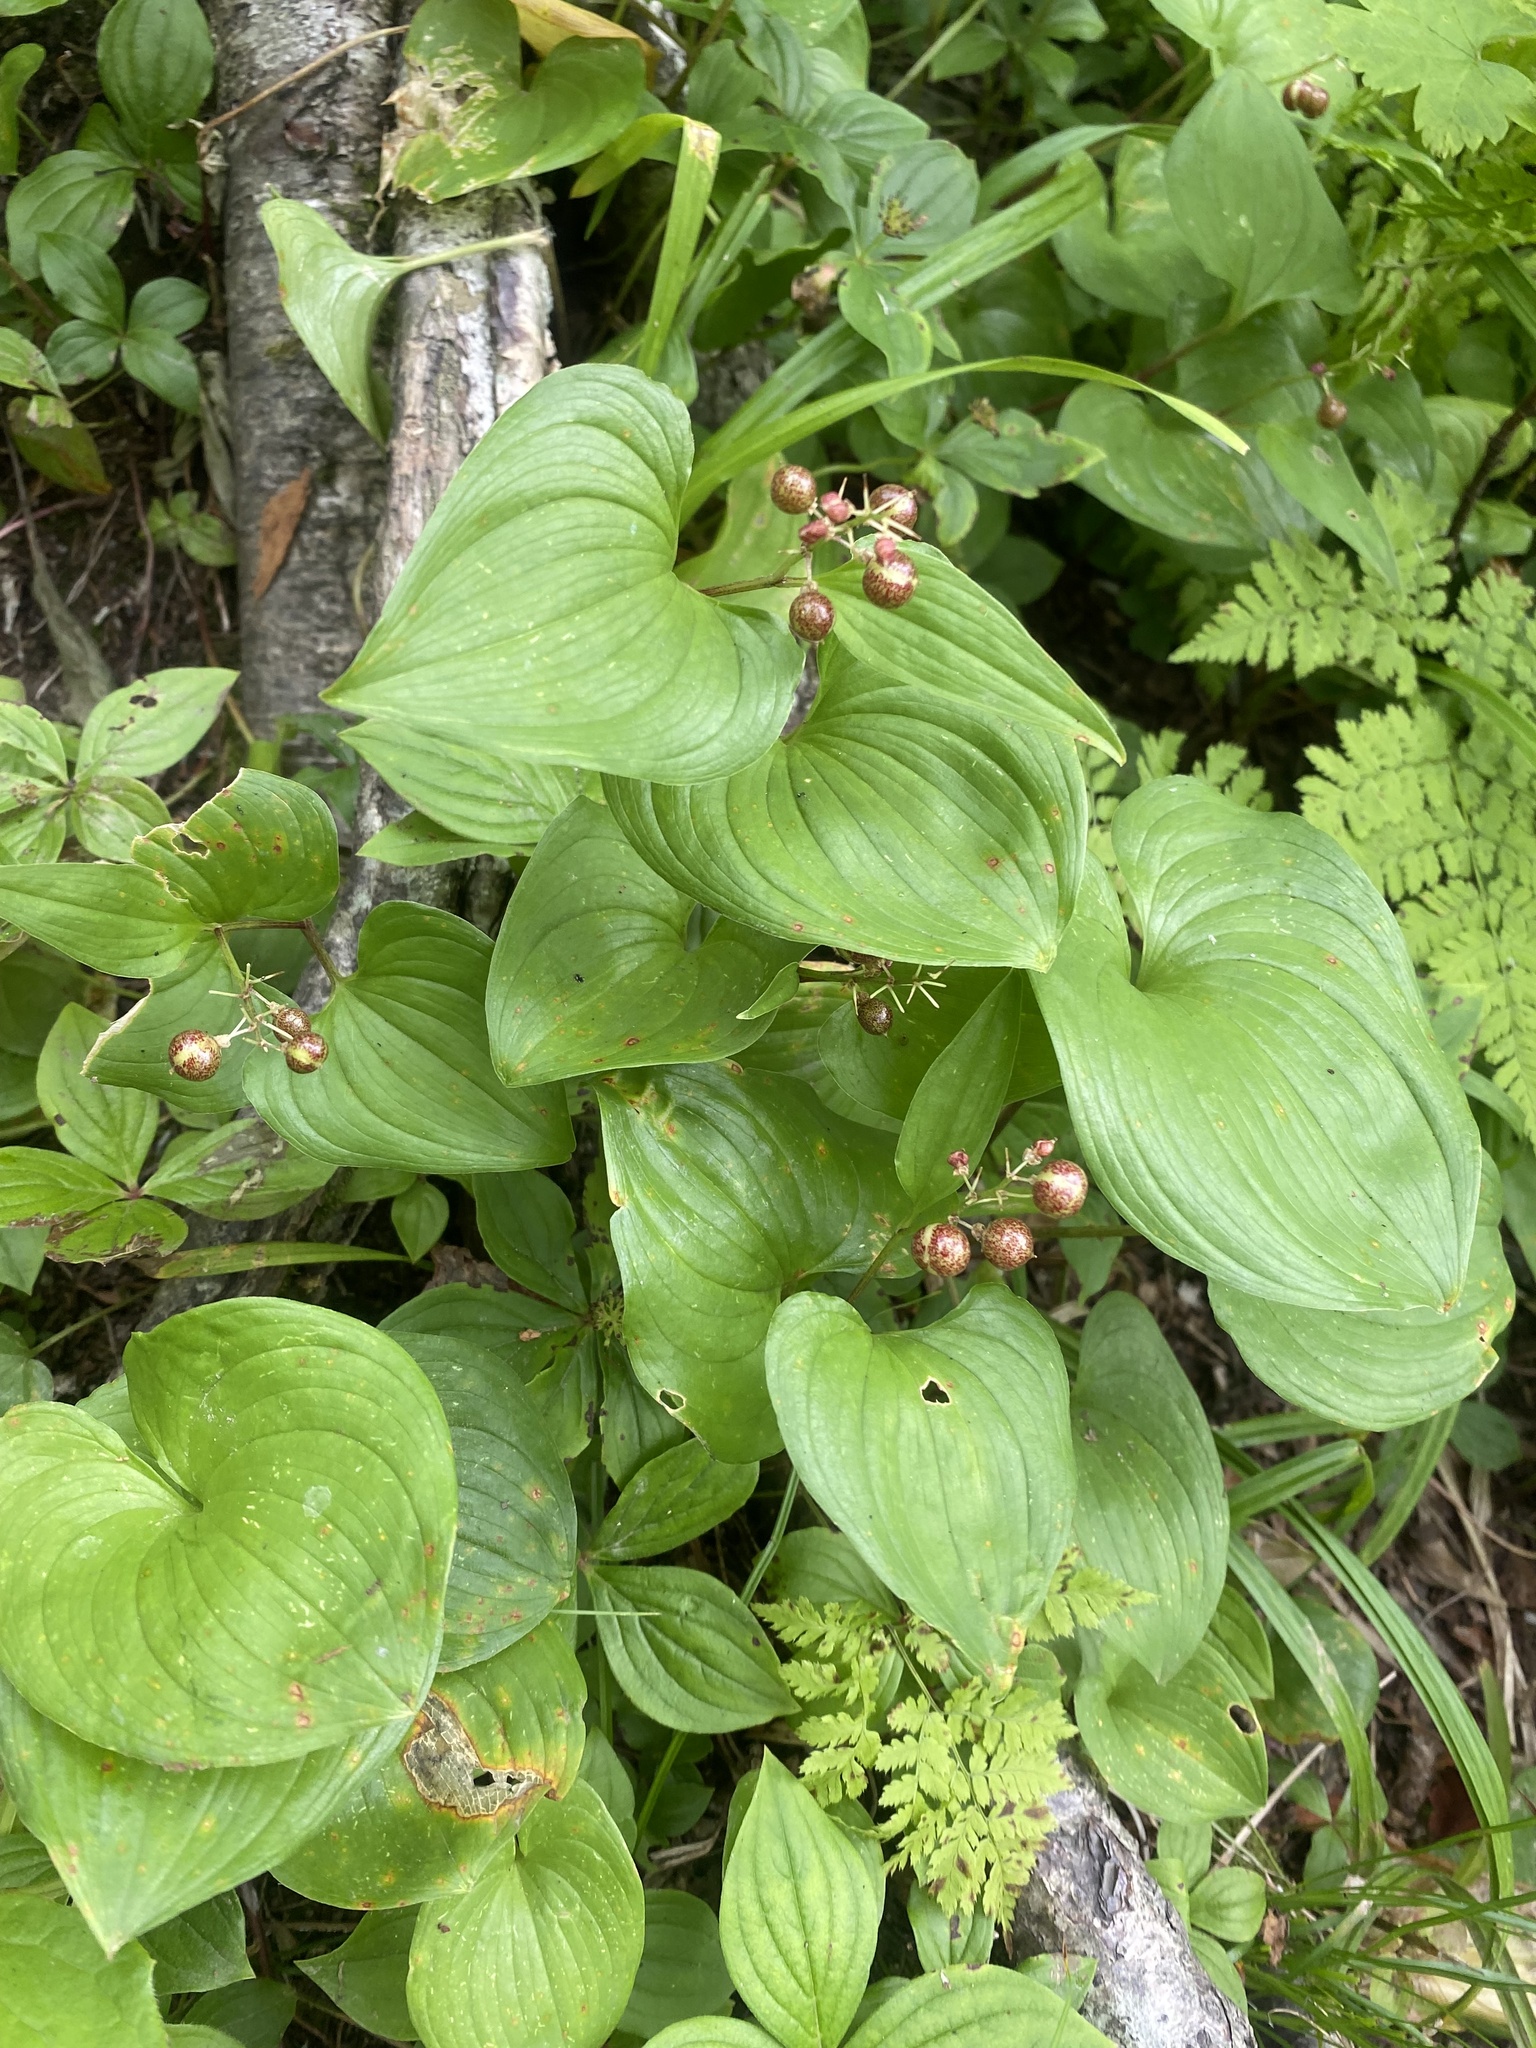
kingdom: Plantae
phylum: Tracheophyta
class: Liliopsida
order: Asparagales
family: Asparagaceae
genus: Maianthemum
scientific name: Maianthemum dilatatum
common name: False lily-of-the-valley
